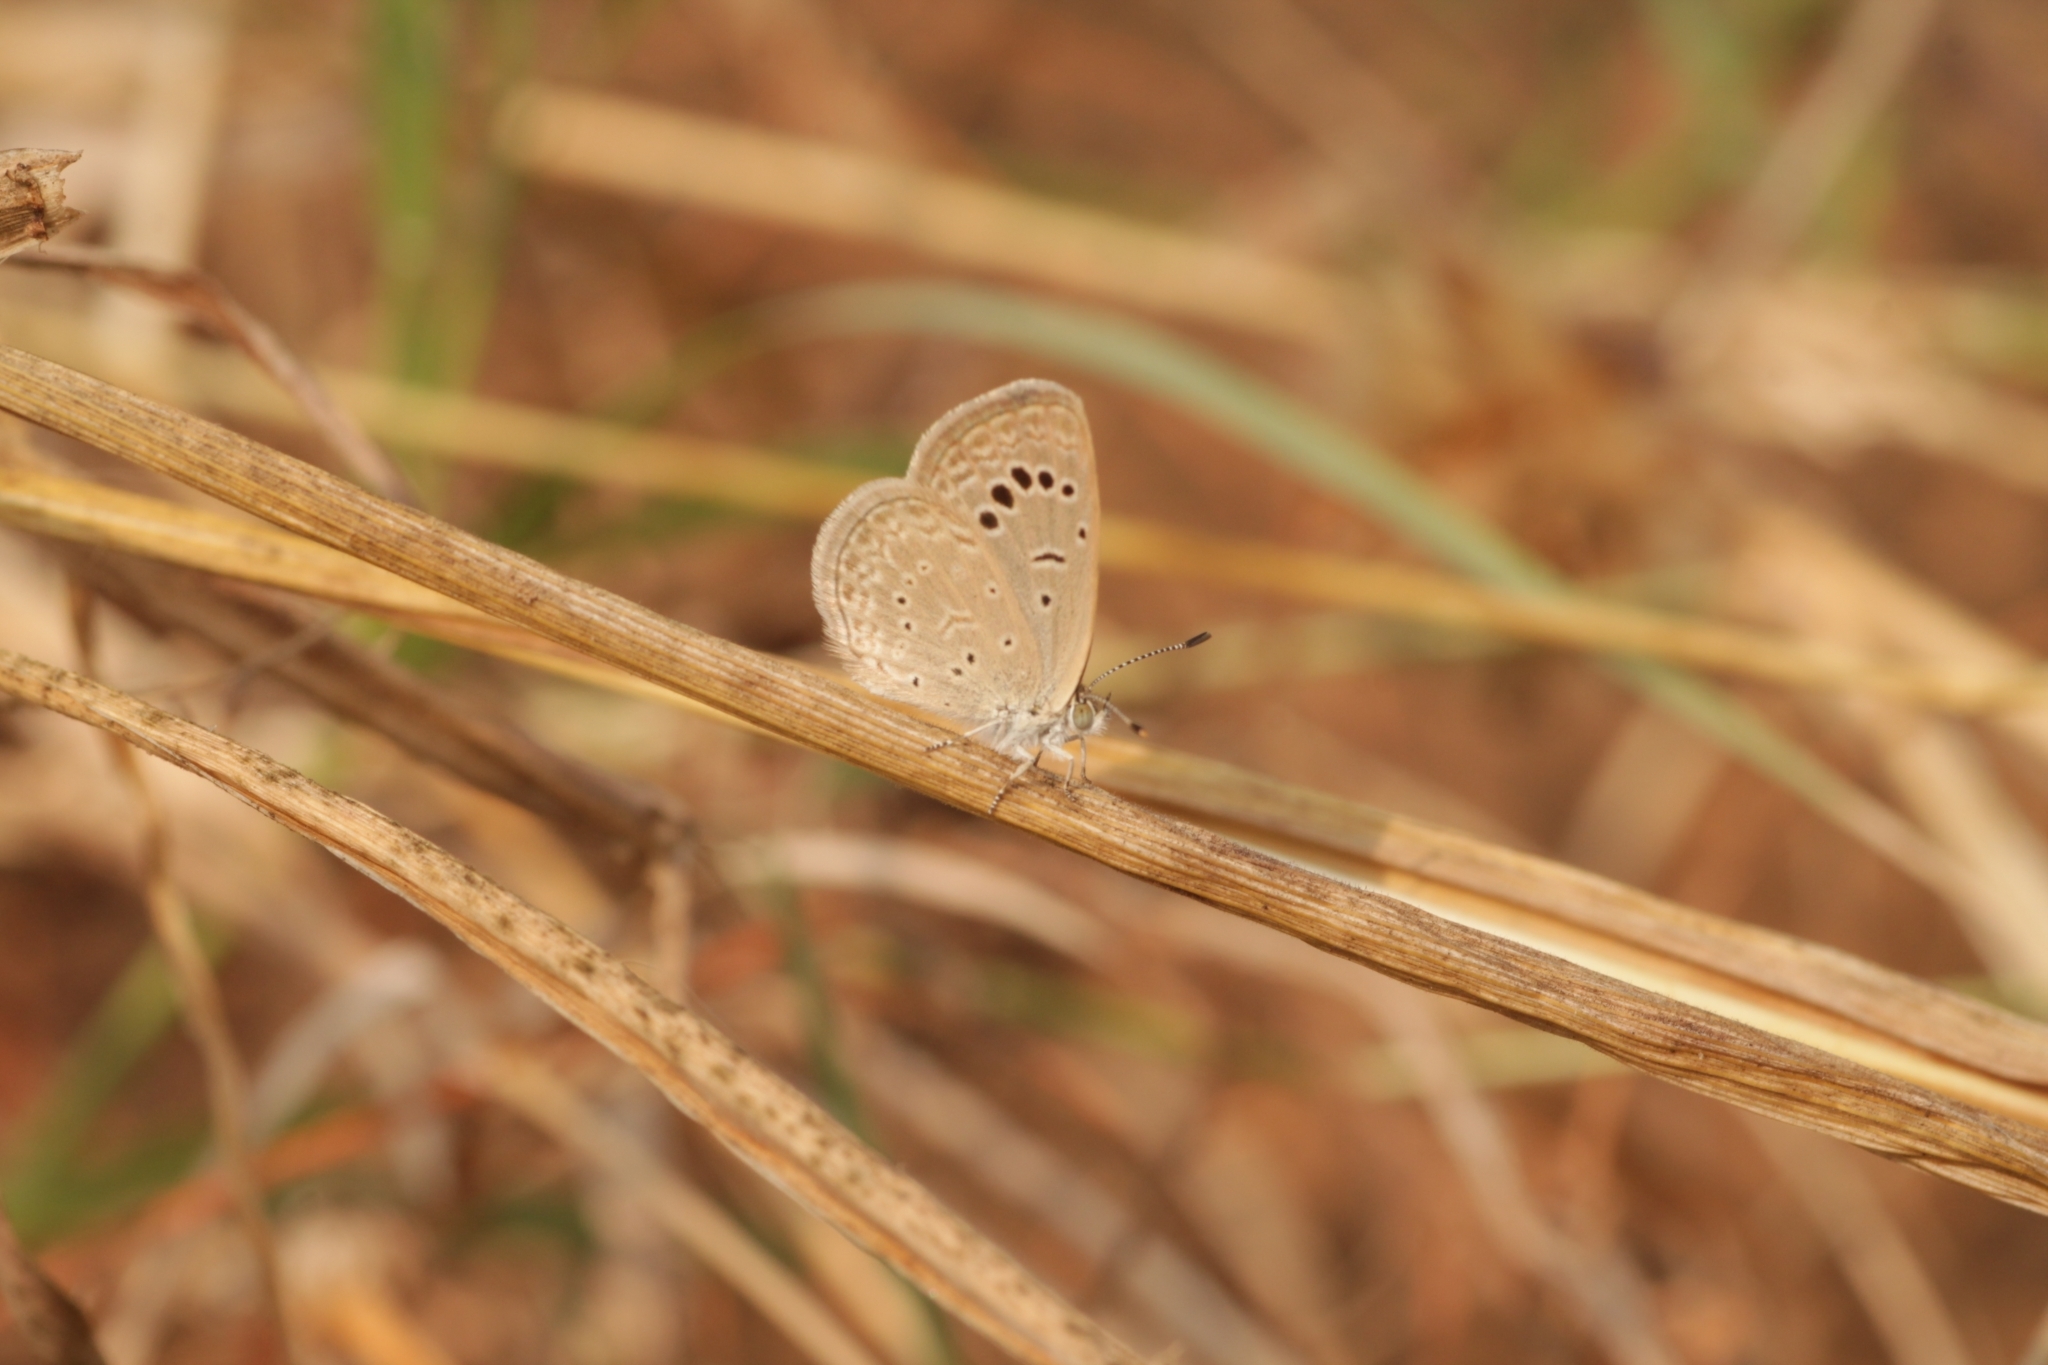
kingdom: Animalia
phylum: Arthropoda
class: Insecta
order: Lepidoptera
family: Lycaenidae
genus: Zizeeria
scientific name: Zizeeria karsandra
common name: Dark grass blue
